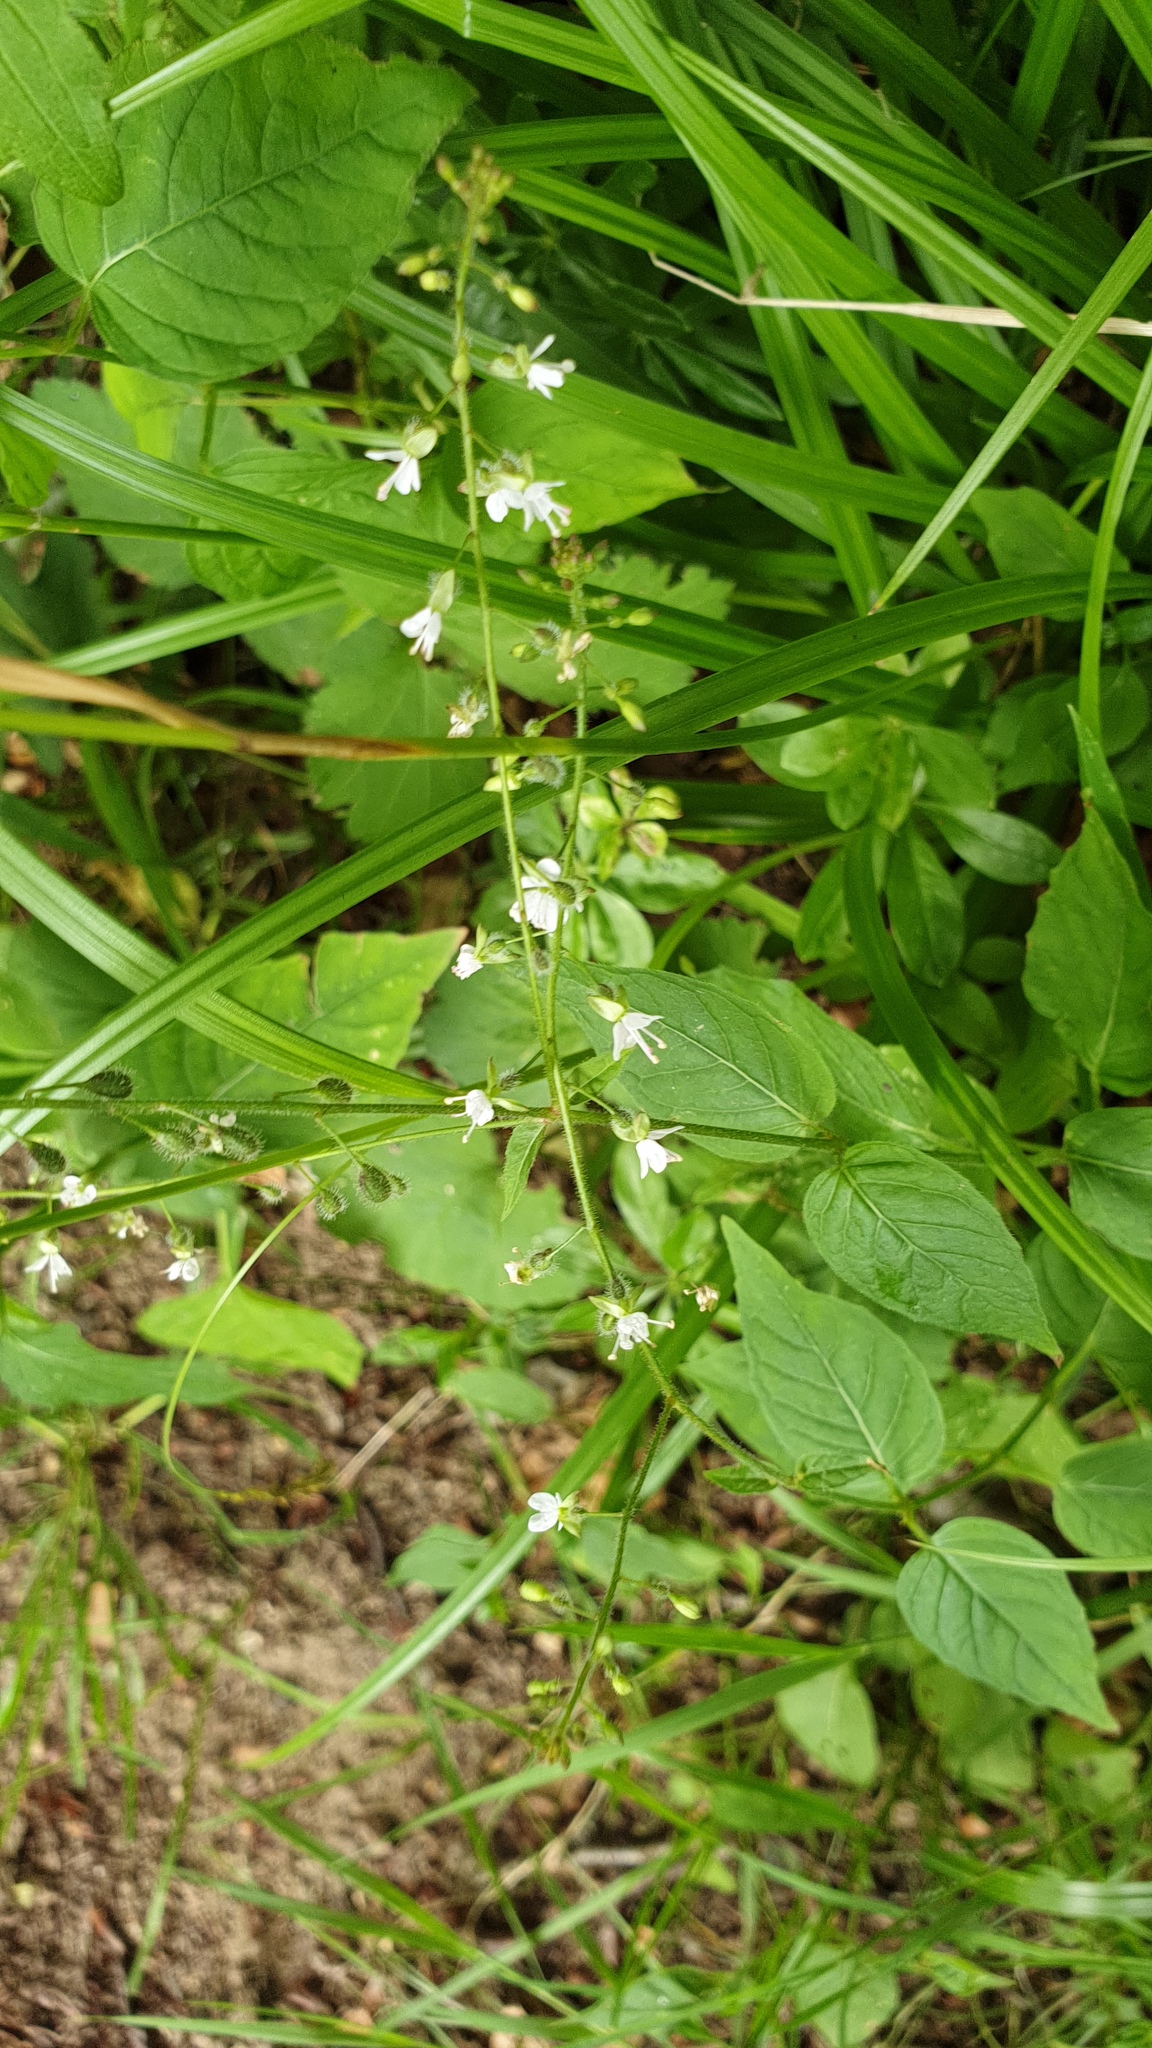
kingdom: Plantae
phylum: Tracheophyta
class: Magnoliopsida
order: Myrtales
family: Onagraceae
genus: Circaea
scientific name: Circaea lutetiana
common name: Enchanter's-nightshade
